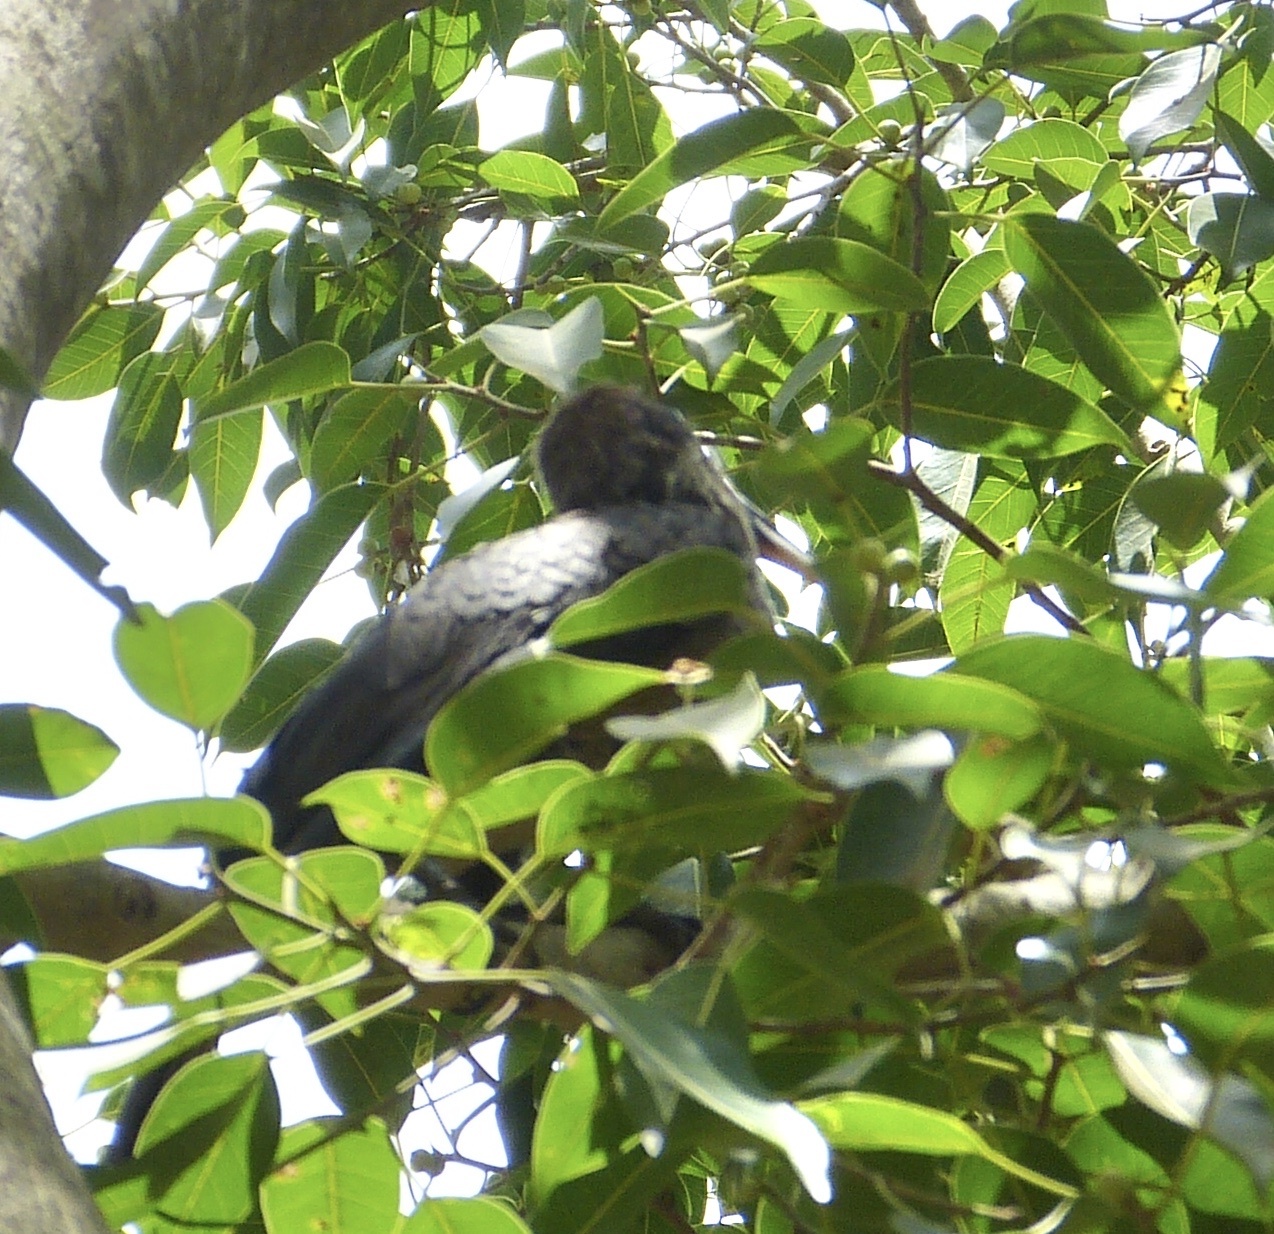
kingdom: Animalia
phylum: Chordata
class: Aves
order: Bucerotiformes
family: Bucerotidae
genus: Ocyceros
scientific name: Ocyceros gingalensis
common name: Sri lanka grey hornbill
